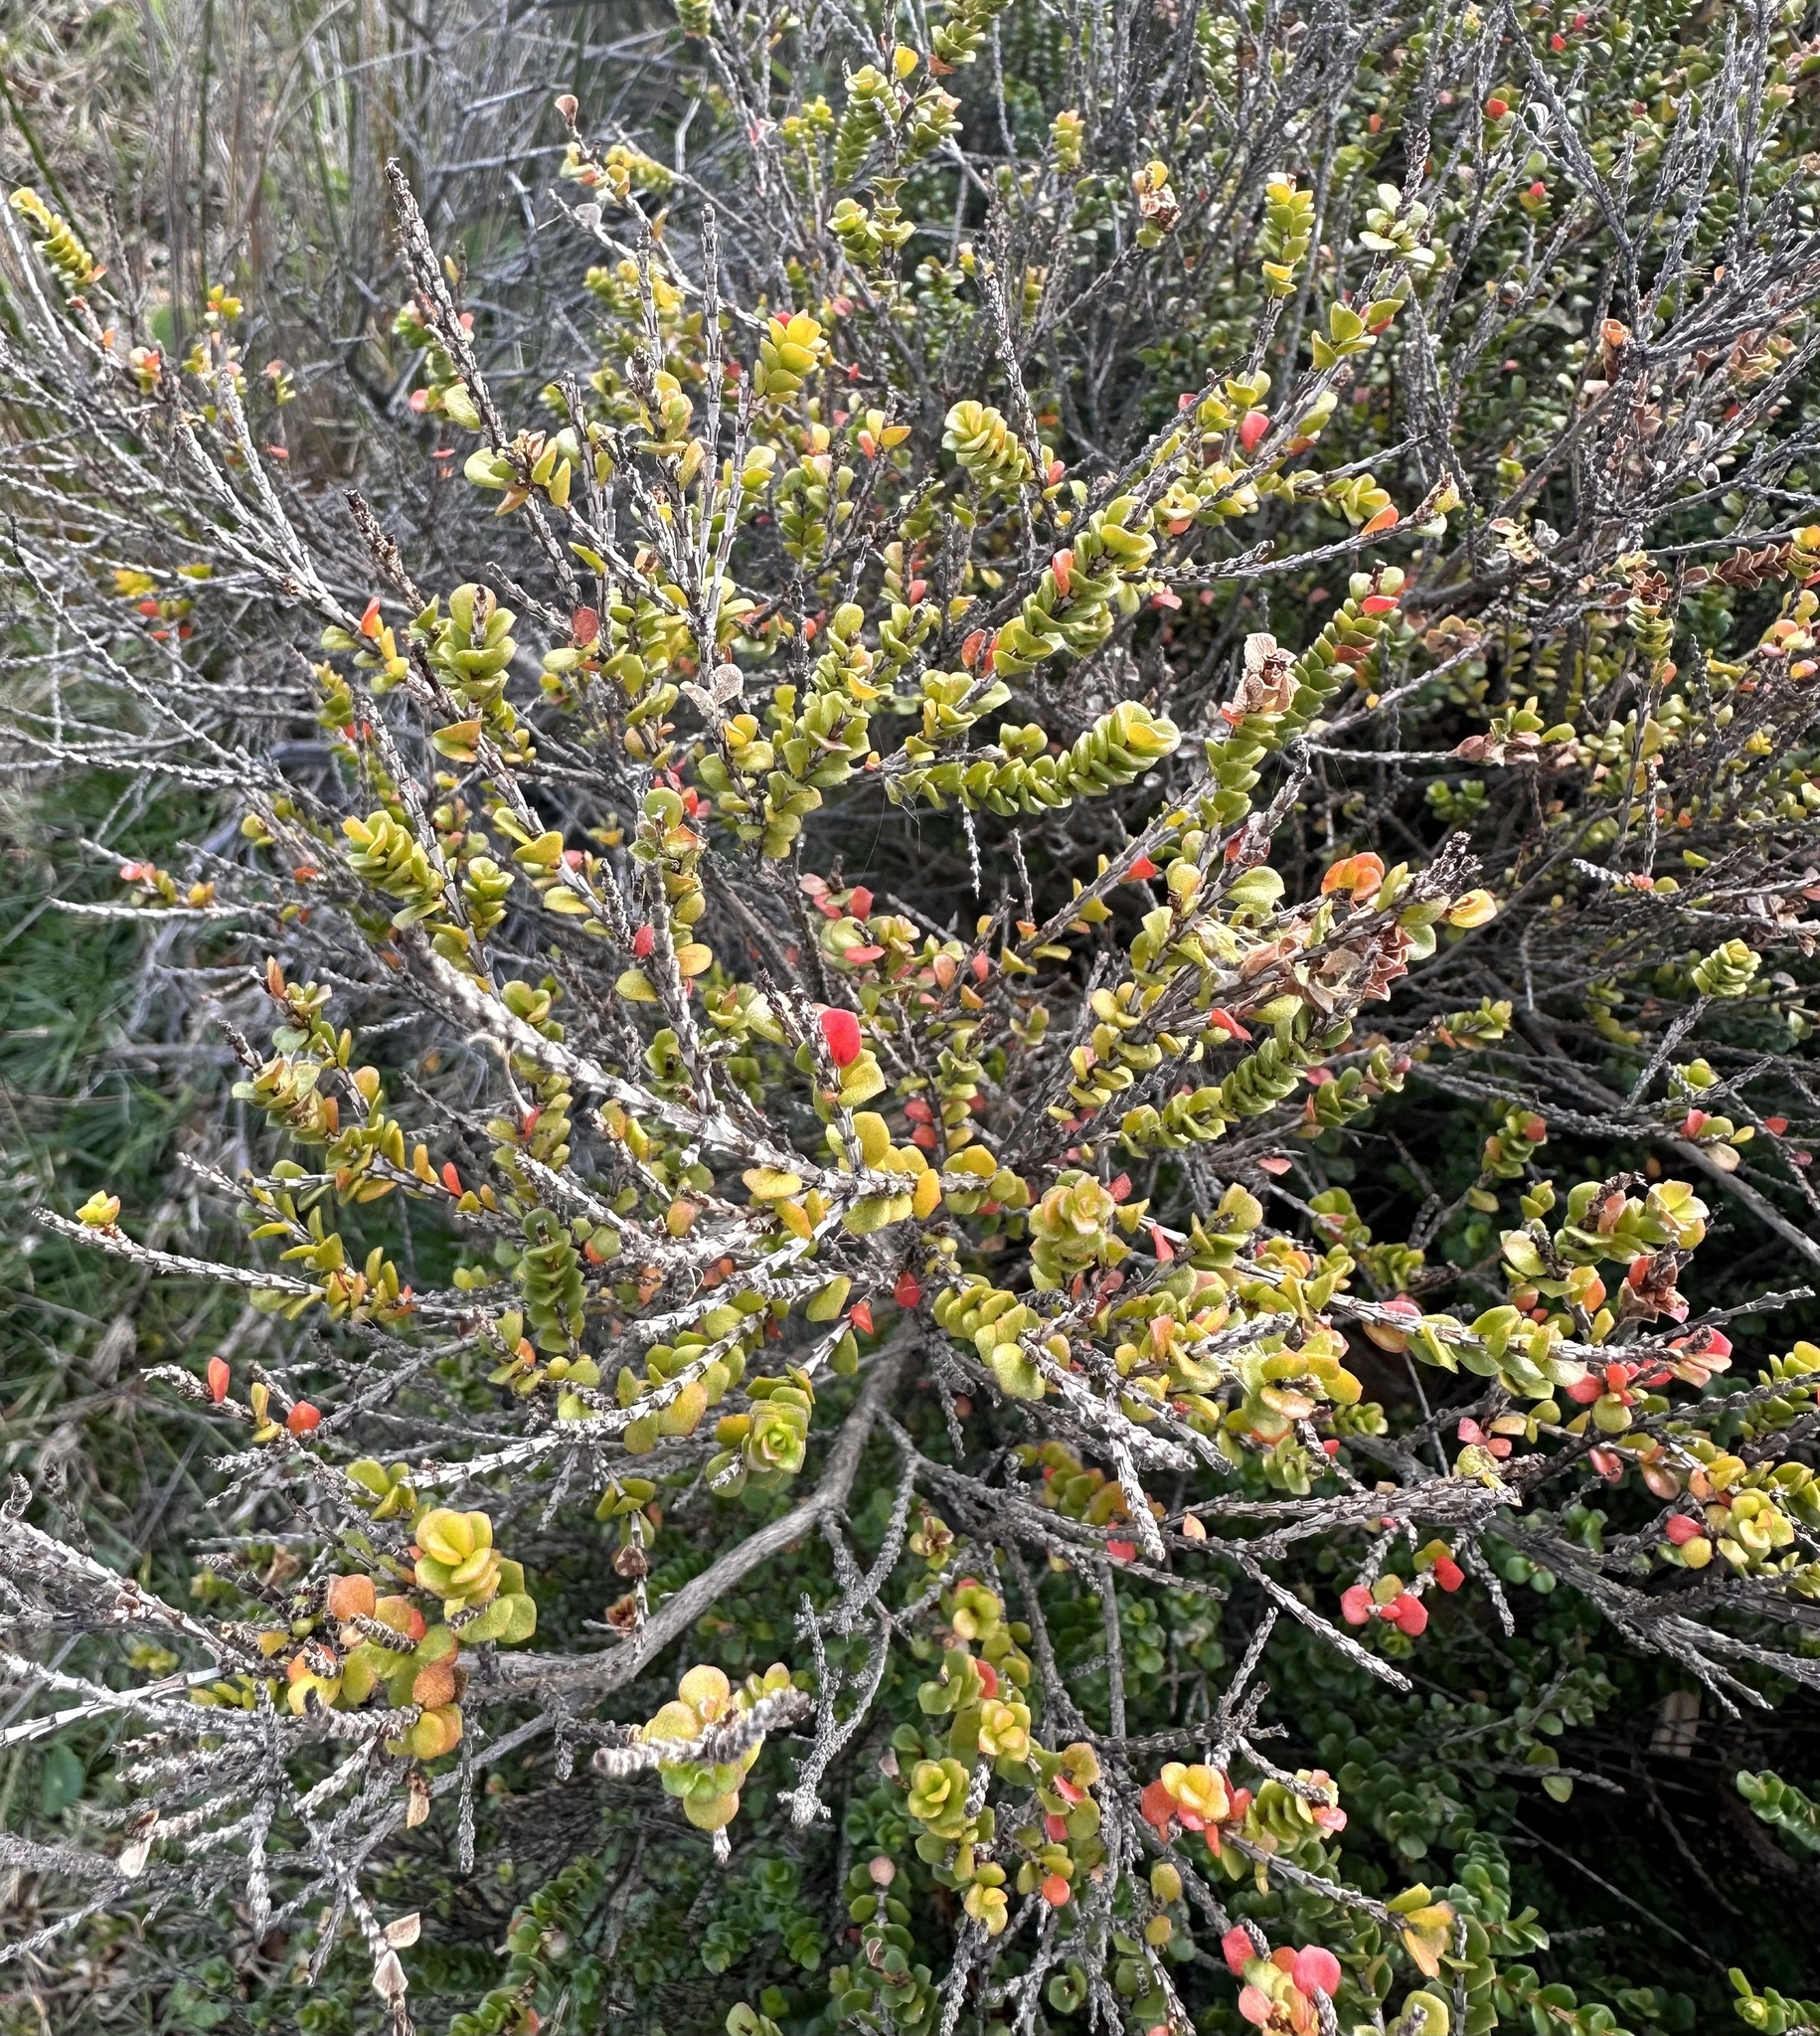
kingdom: Plantae
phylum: Tracheophyta
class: Magnoliopsida
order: Myrtales
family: Myrtaceae
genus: Baeckea
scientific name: Baeckea imbricata
